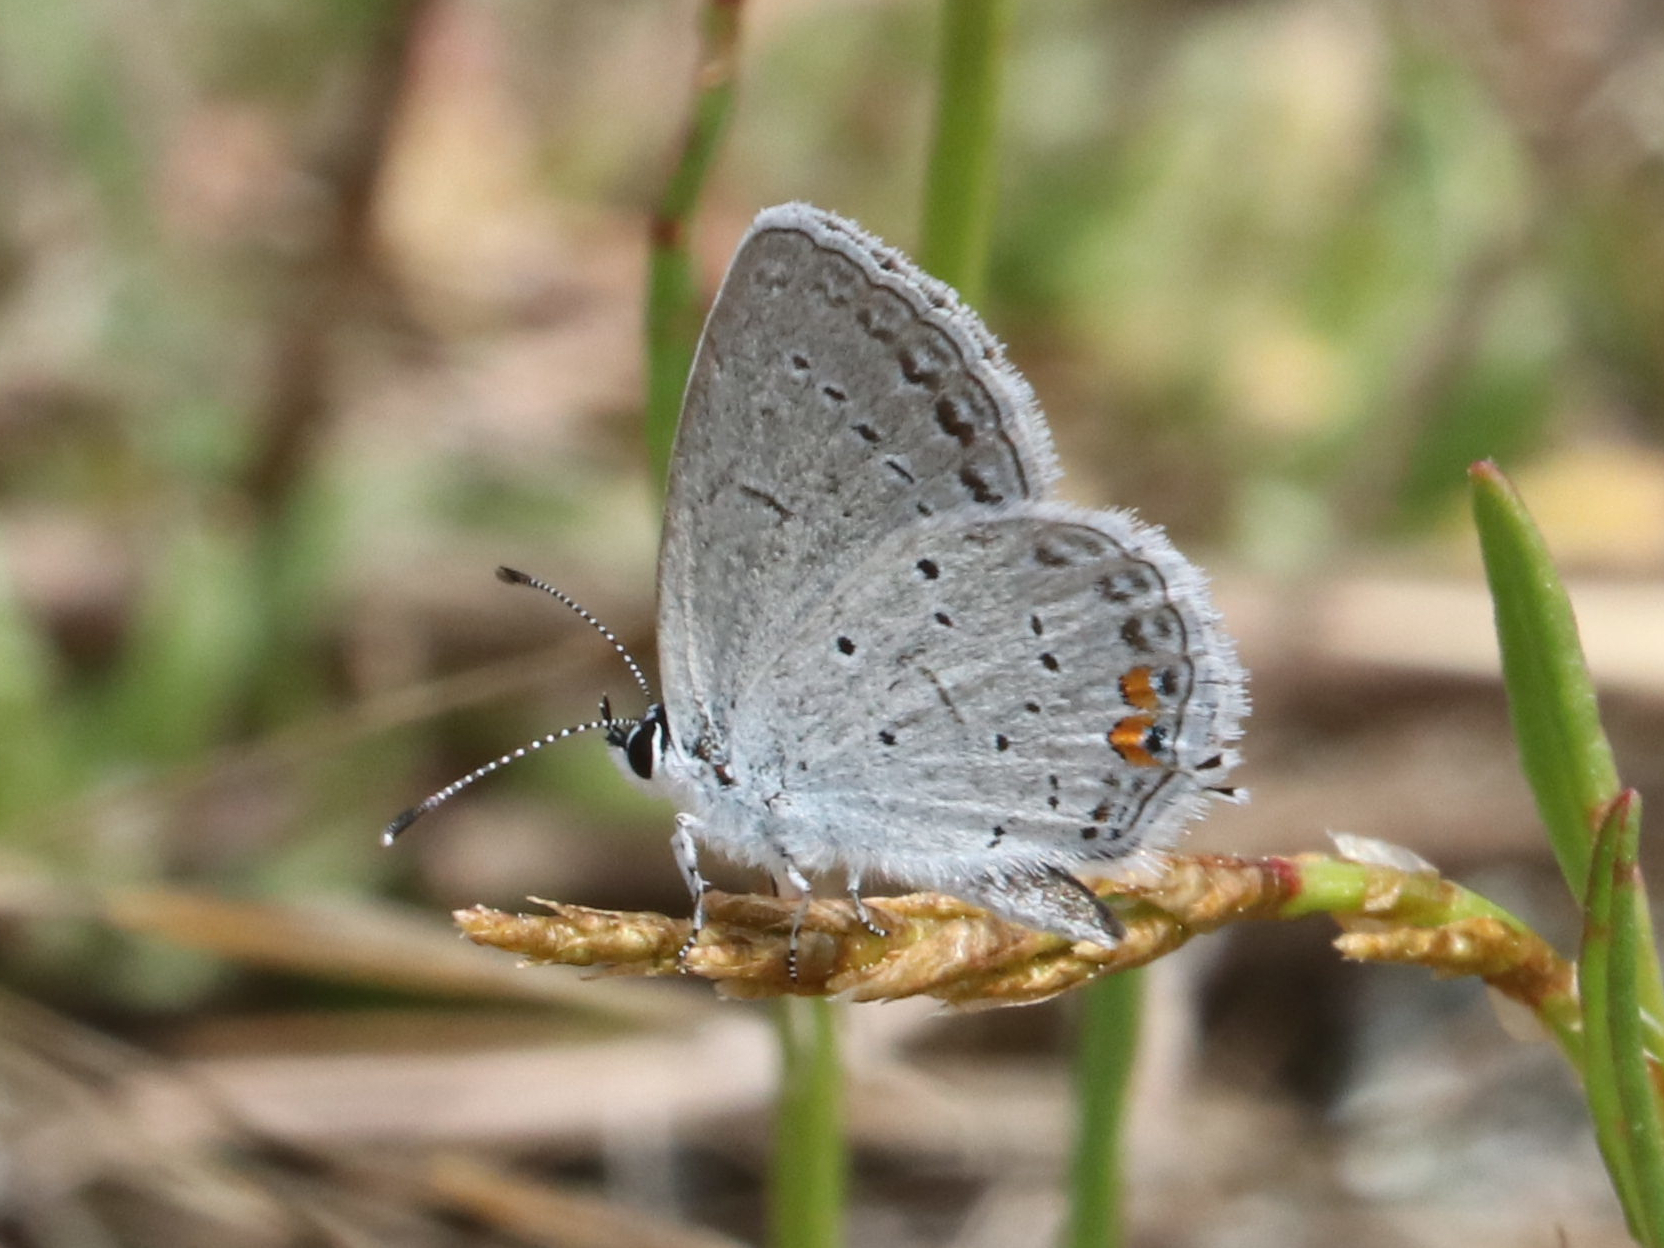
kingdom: Animalia
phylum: Arthropoda
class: Insecta
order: Lepidoptera
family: Lycaenidae
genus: Elkalyce
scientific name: Elkalyce comyntas
